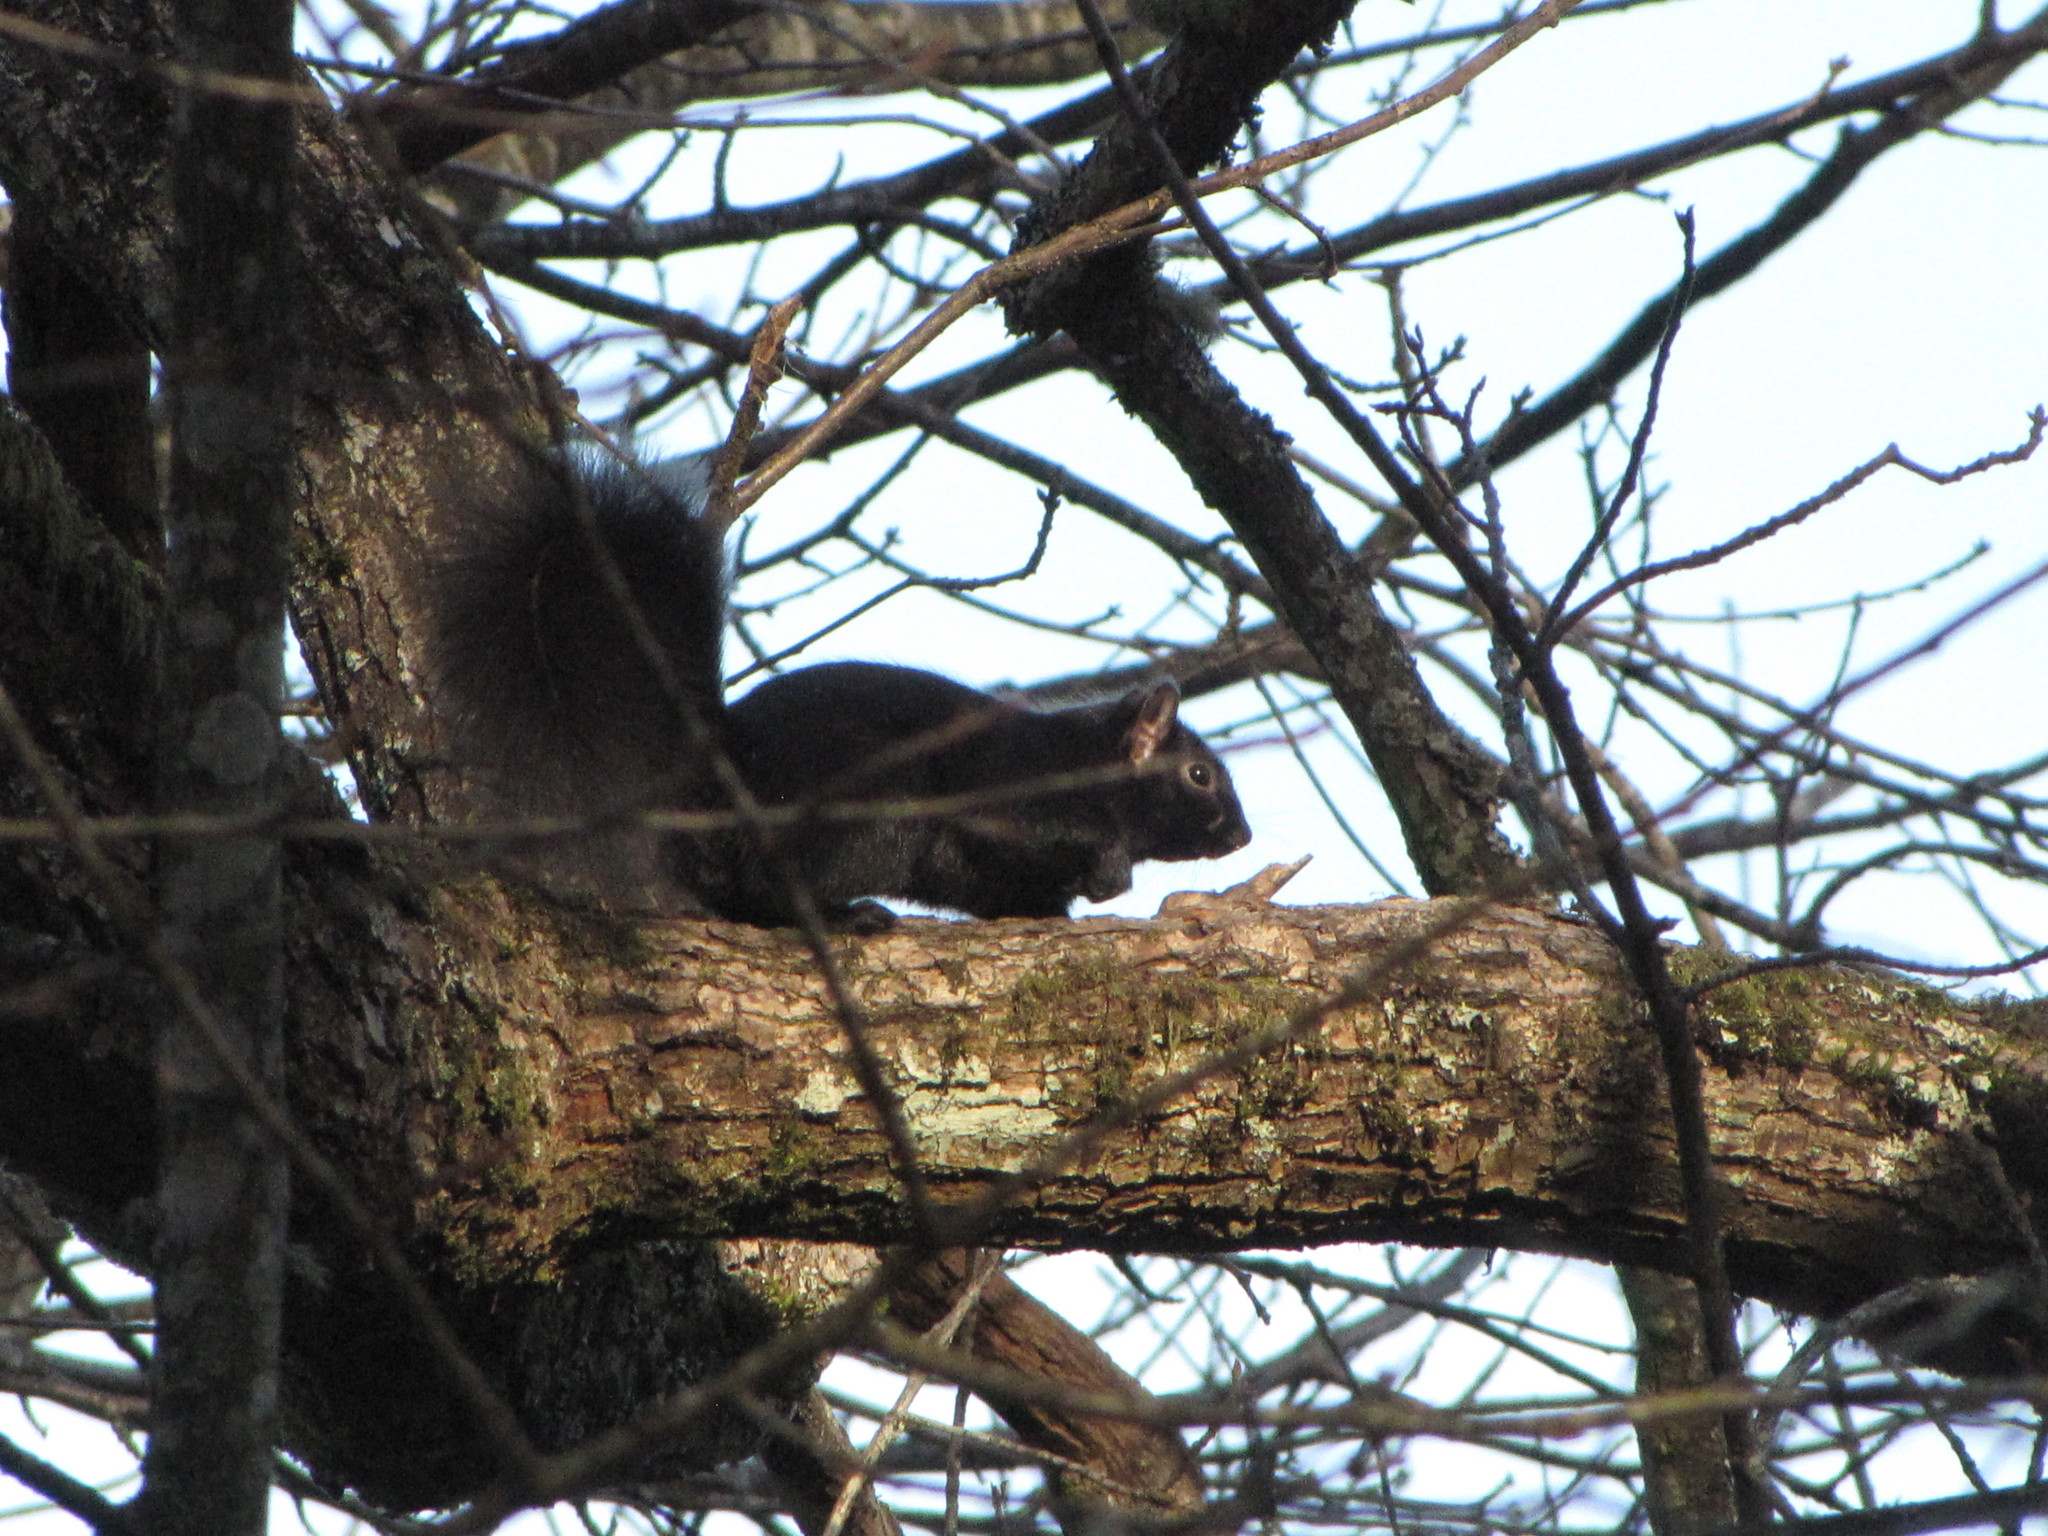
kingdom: Animalia
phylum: Chordata
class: Mammalia
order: Rodentia
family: Sciuridae
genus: Sciurus
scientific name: Sciurus carolinensis
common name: Eastern gray squirrel
